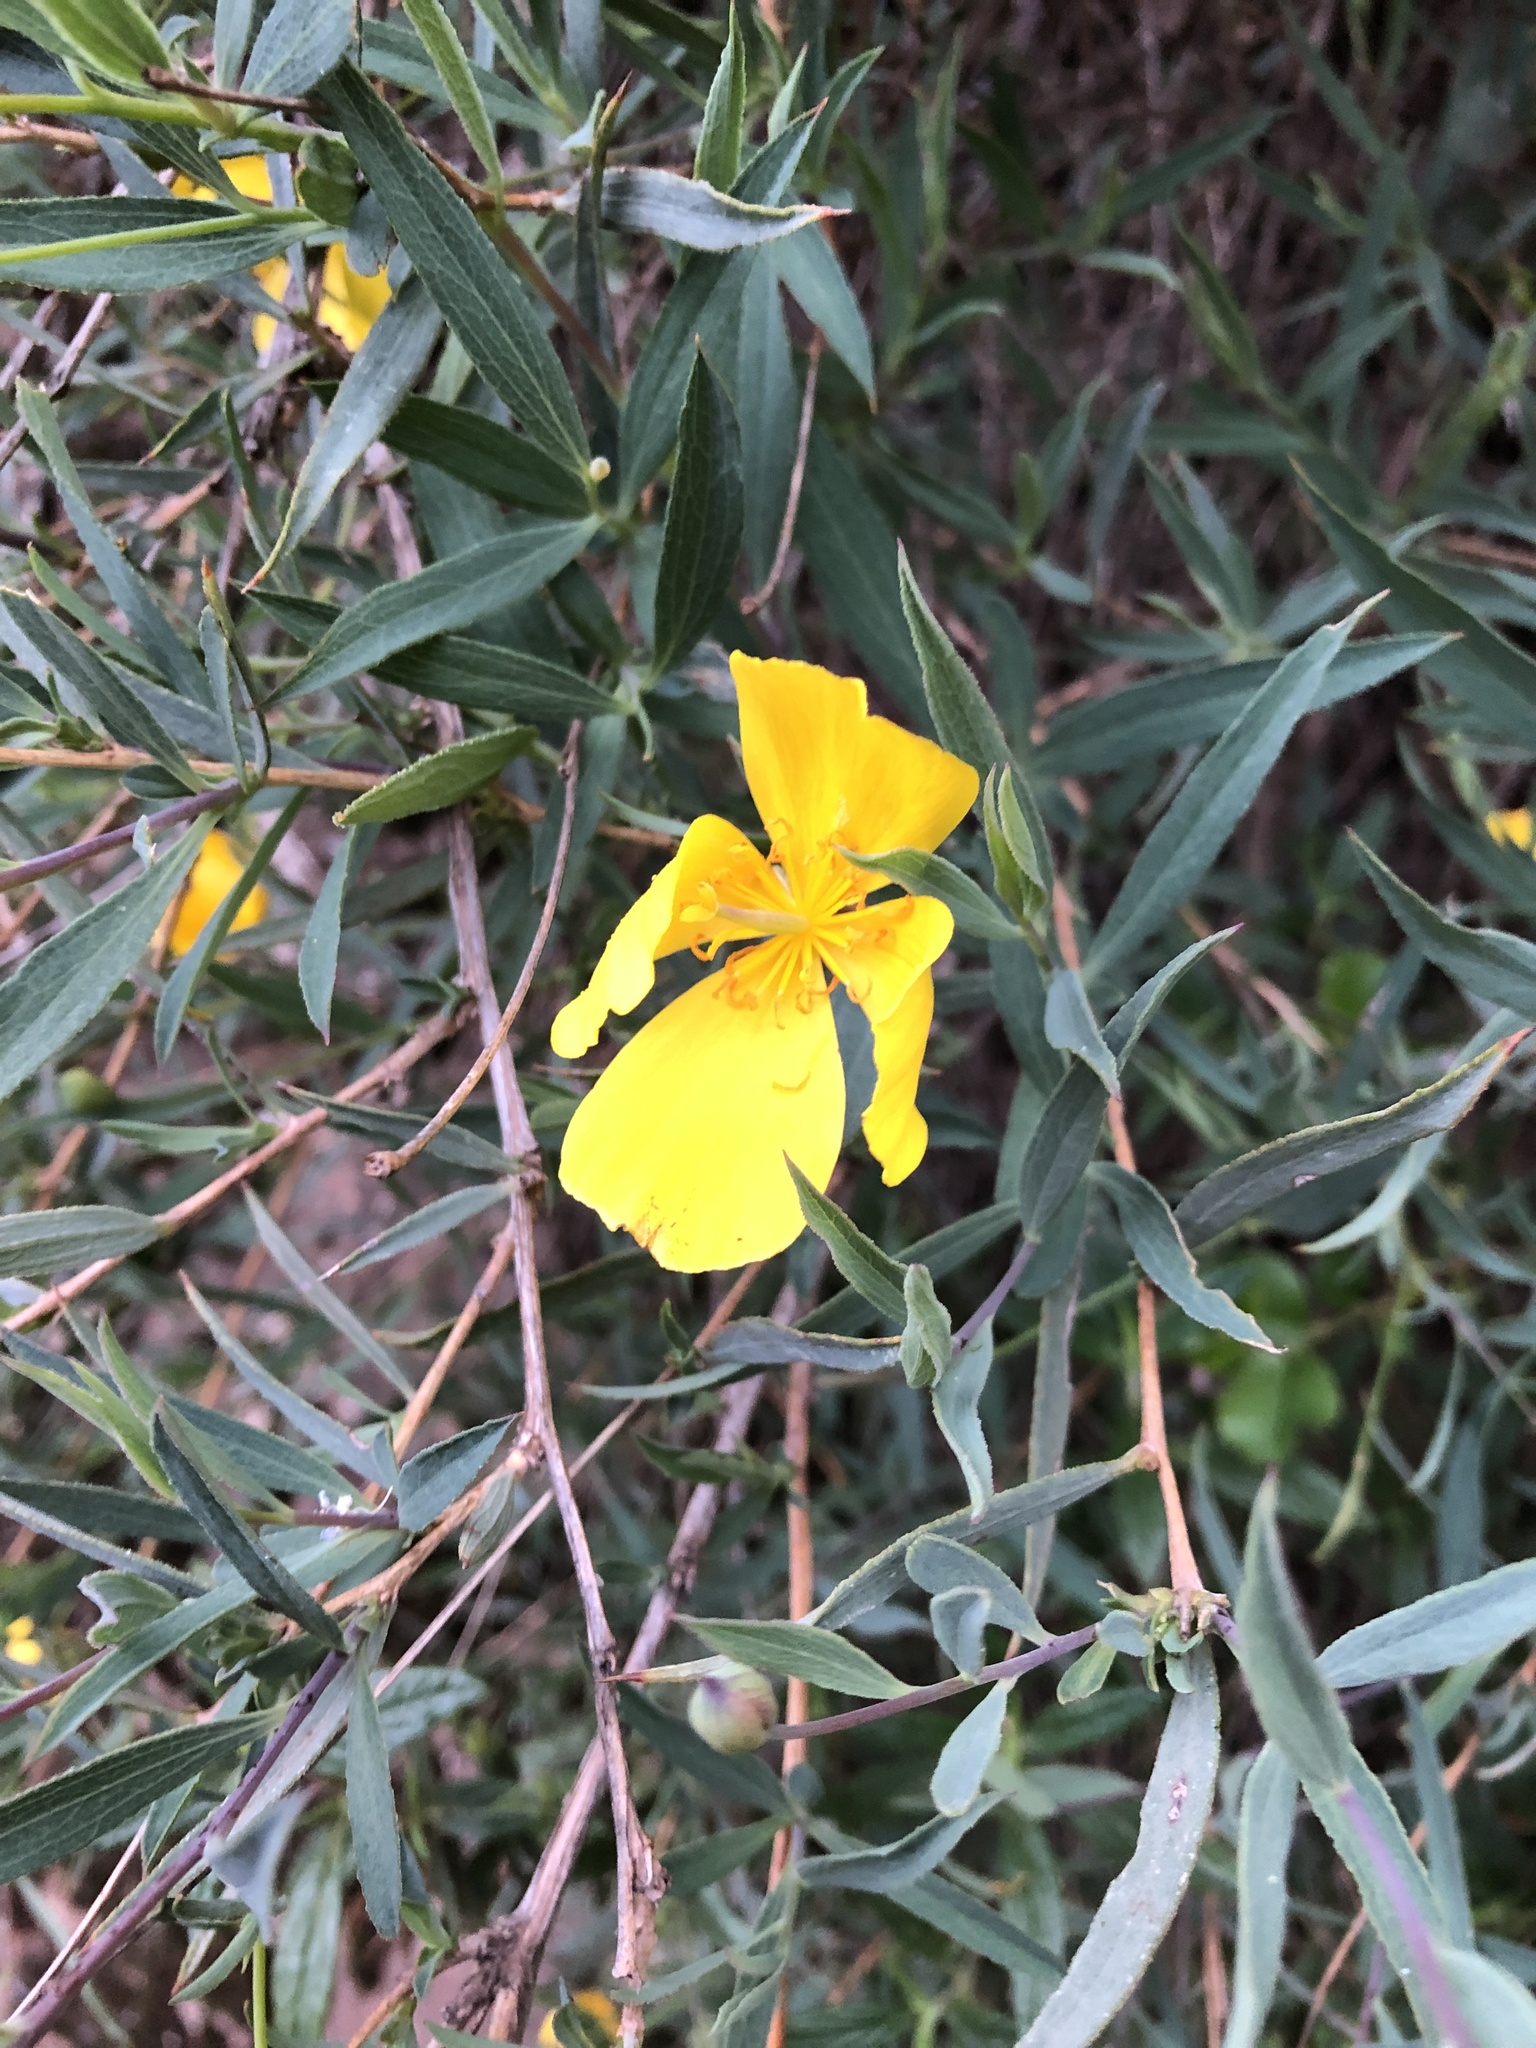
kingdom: Plantae
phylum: Tracheophyta
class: Magnoliopsida
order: Ranunculales
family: Papaveraceae
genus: Dendromecon
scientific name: Dendromecon rigida
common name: Tree poppy
